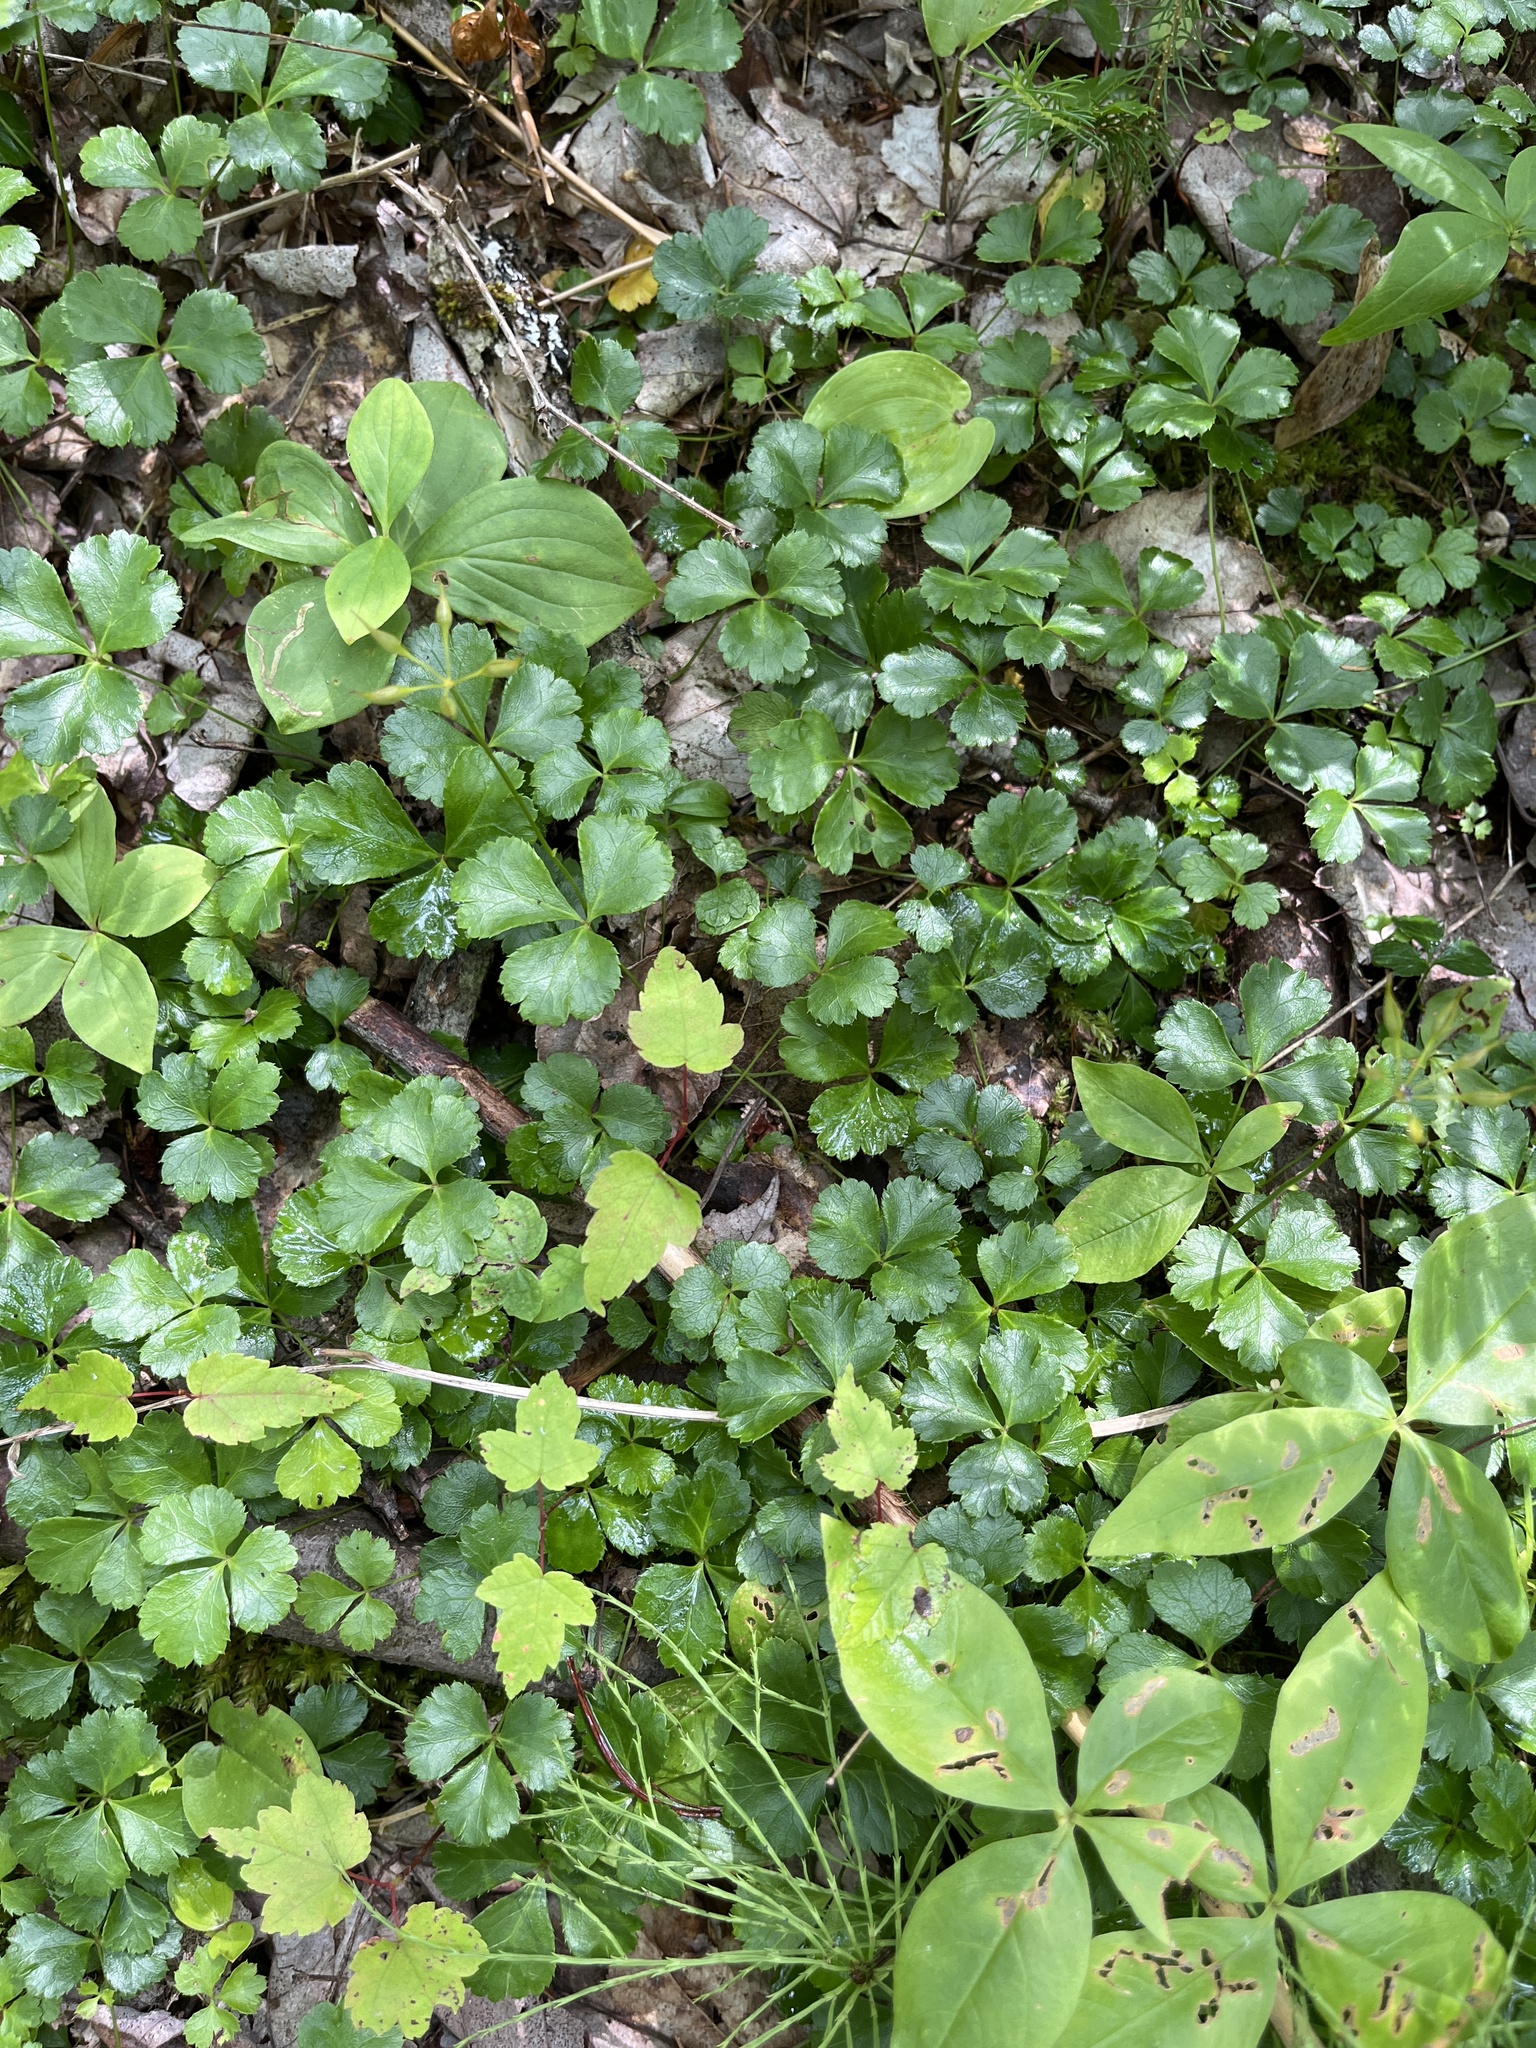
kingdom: Plantae
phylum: Tracheophyta
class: Magnoliopsida
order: Ranunculales
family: Ranunculaceae
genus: Coptis
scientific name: Coptis trifolia
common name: Canker-root
